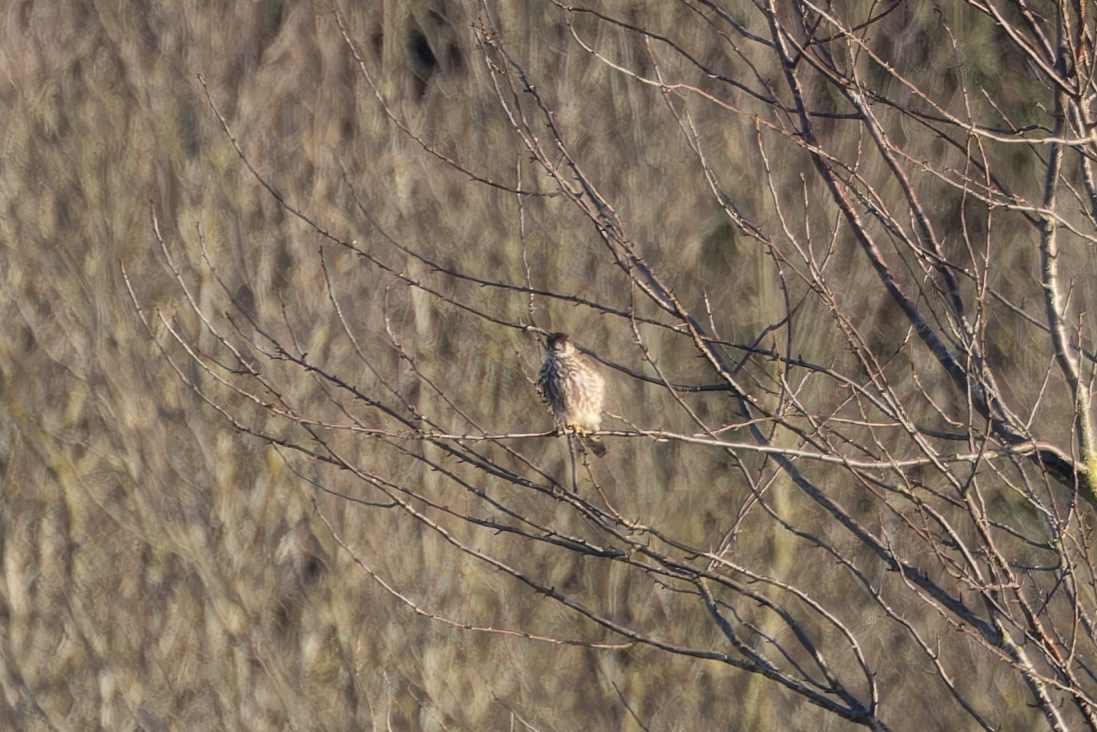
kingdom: Animalia
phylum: Chordata
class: Aves
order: Falconiformes
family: Falconidae
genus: Falco
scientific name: Falco columbarius
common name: Merlin
